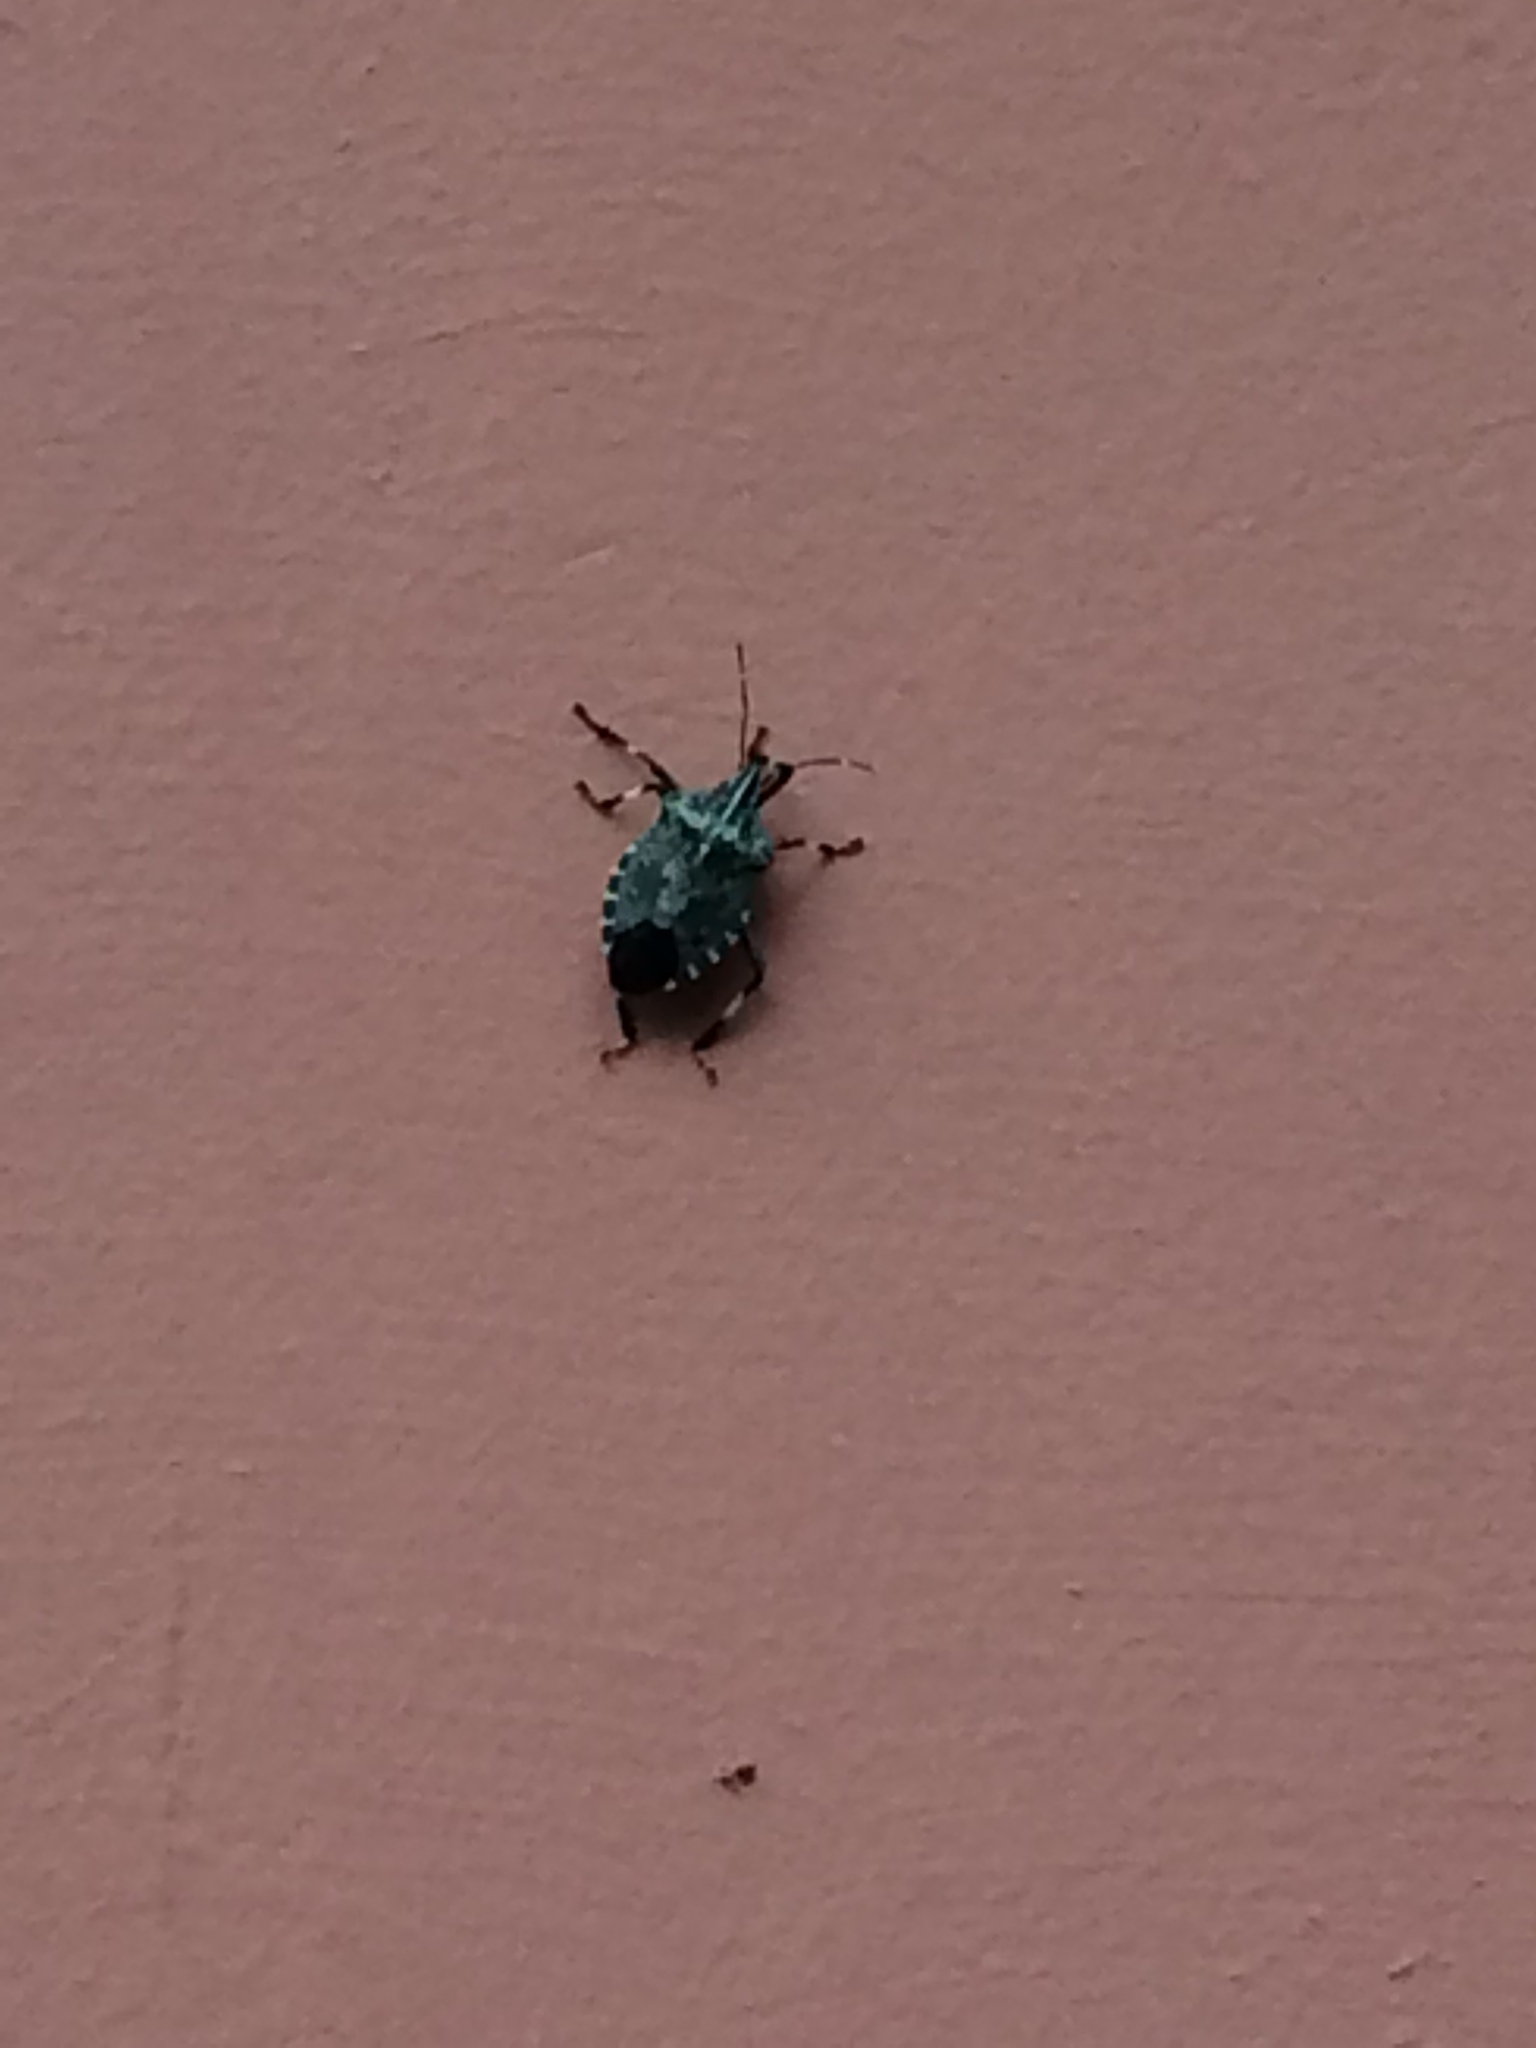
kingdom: Animalia
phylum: Arthropoda
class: Insecta
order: Hemiptera
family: Pentatomidae
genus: Erthesina
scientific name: Erthesina fullo
